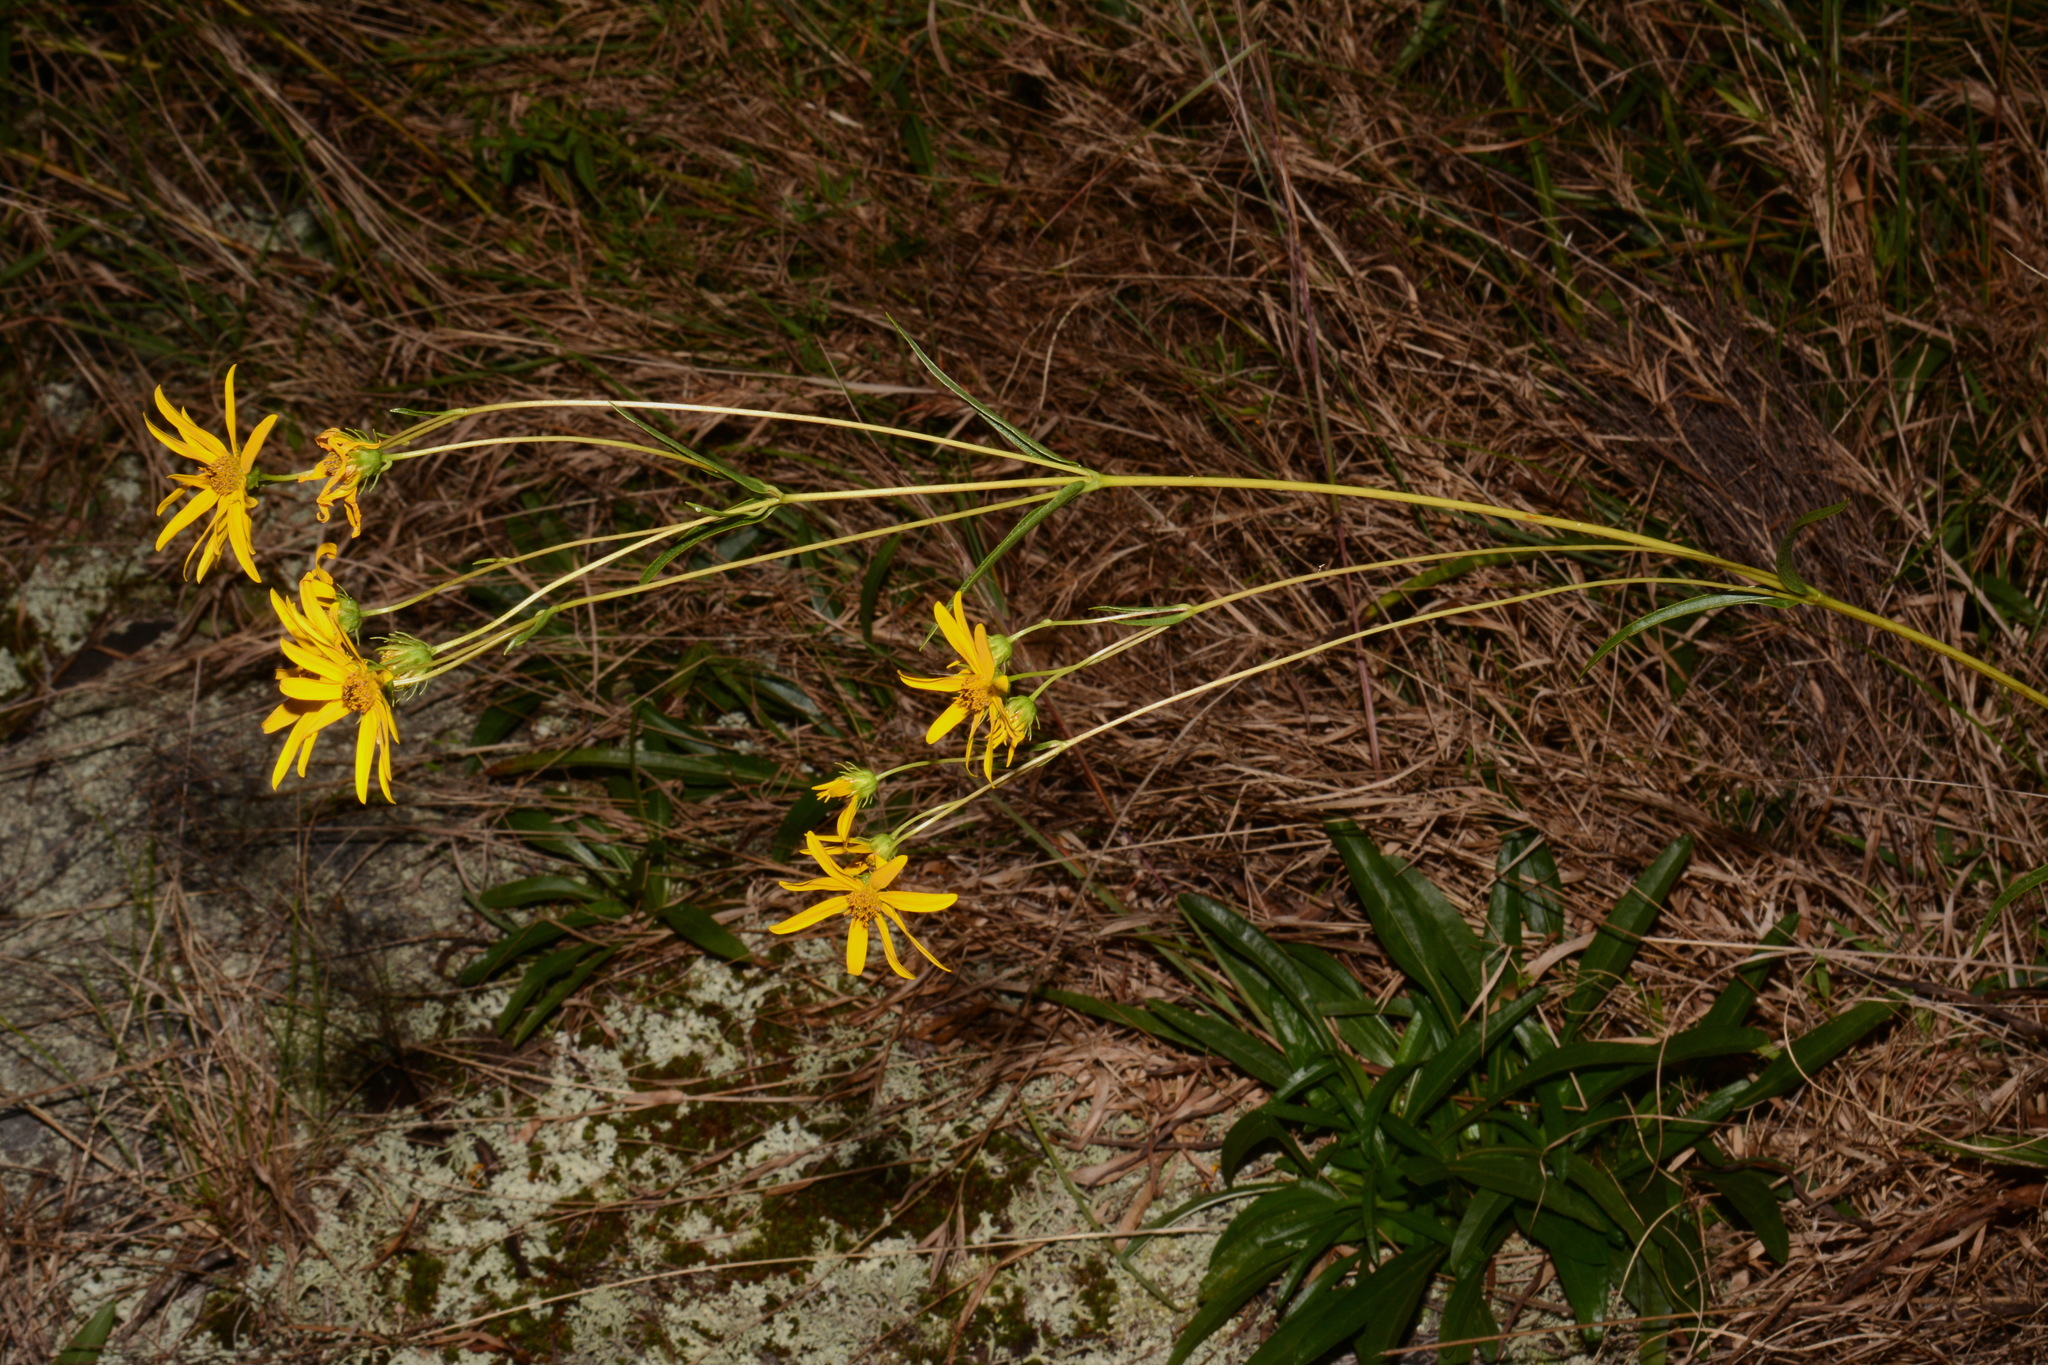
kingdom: Plantae
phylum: Tracheophyta
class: Magnoliopsida
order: Asterales
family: Asteraceae
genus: Helianthus
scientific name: Helianthus longifolius
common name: Longleaf sunflower
